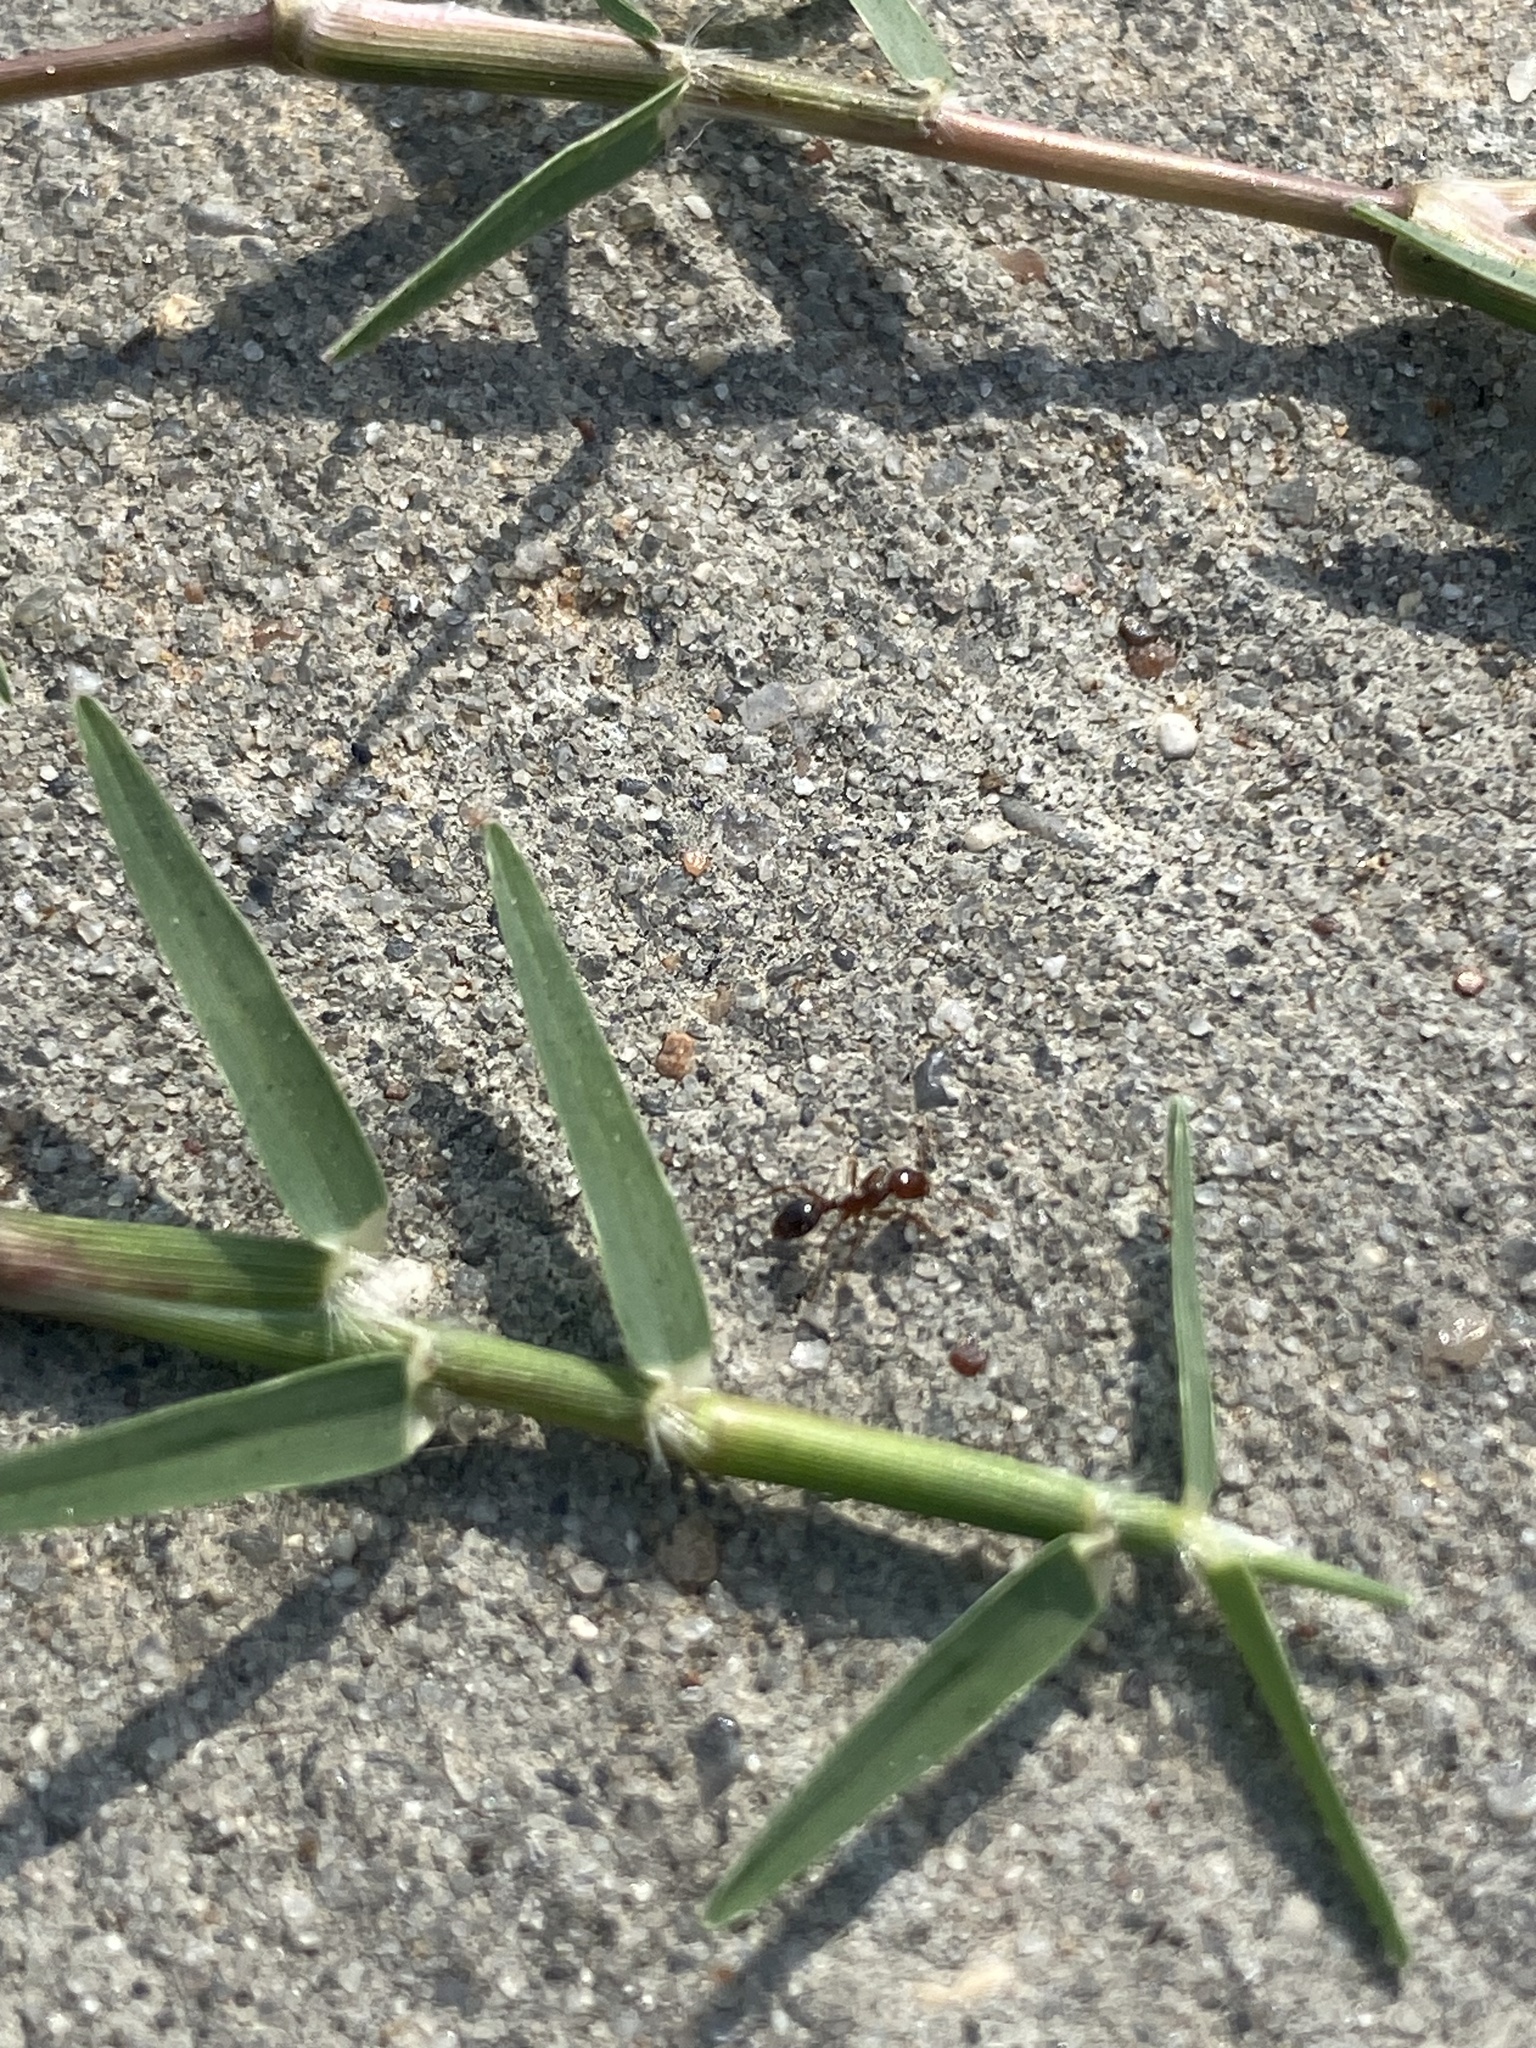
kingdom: Animalia
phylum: Arthropoda
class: Insecta
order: Hymenoptera
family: Formicidae
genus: Solenopsis
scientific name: Solenopsis invicta
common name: Red imported fire ant
